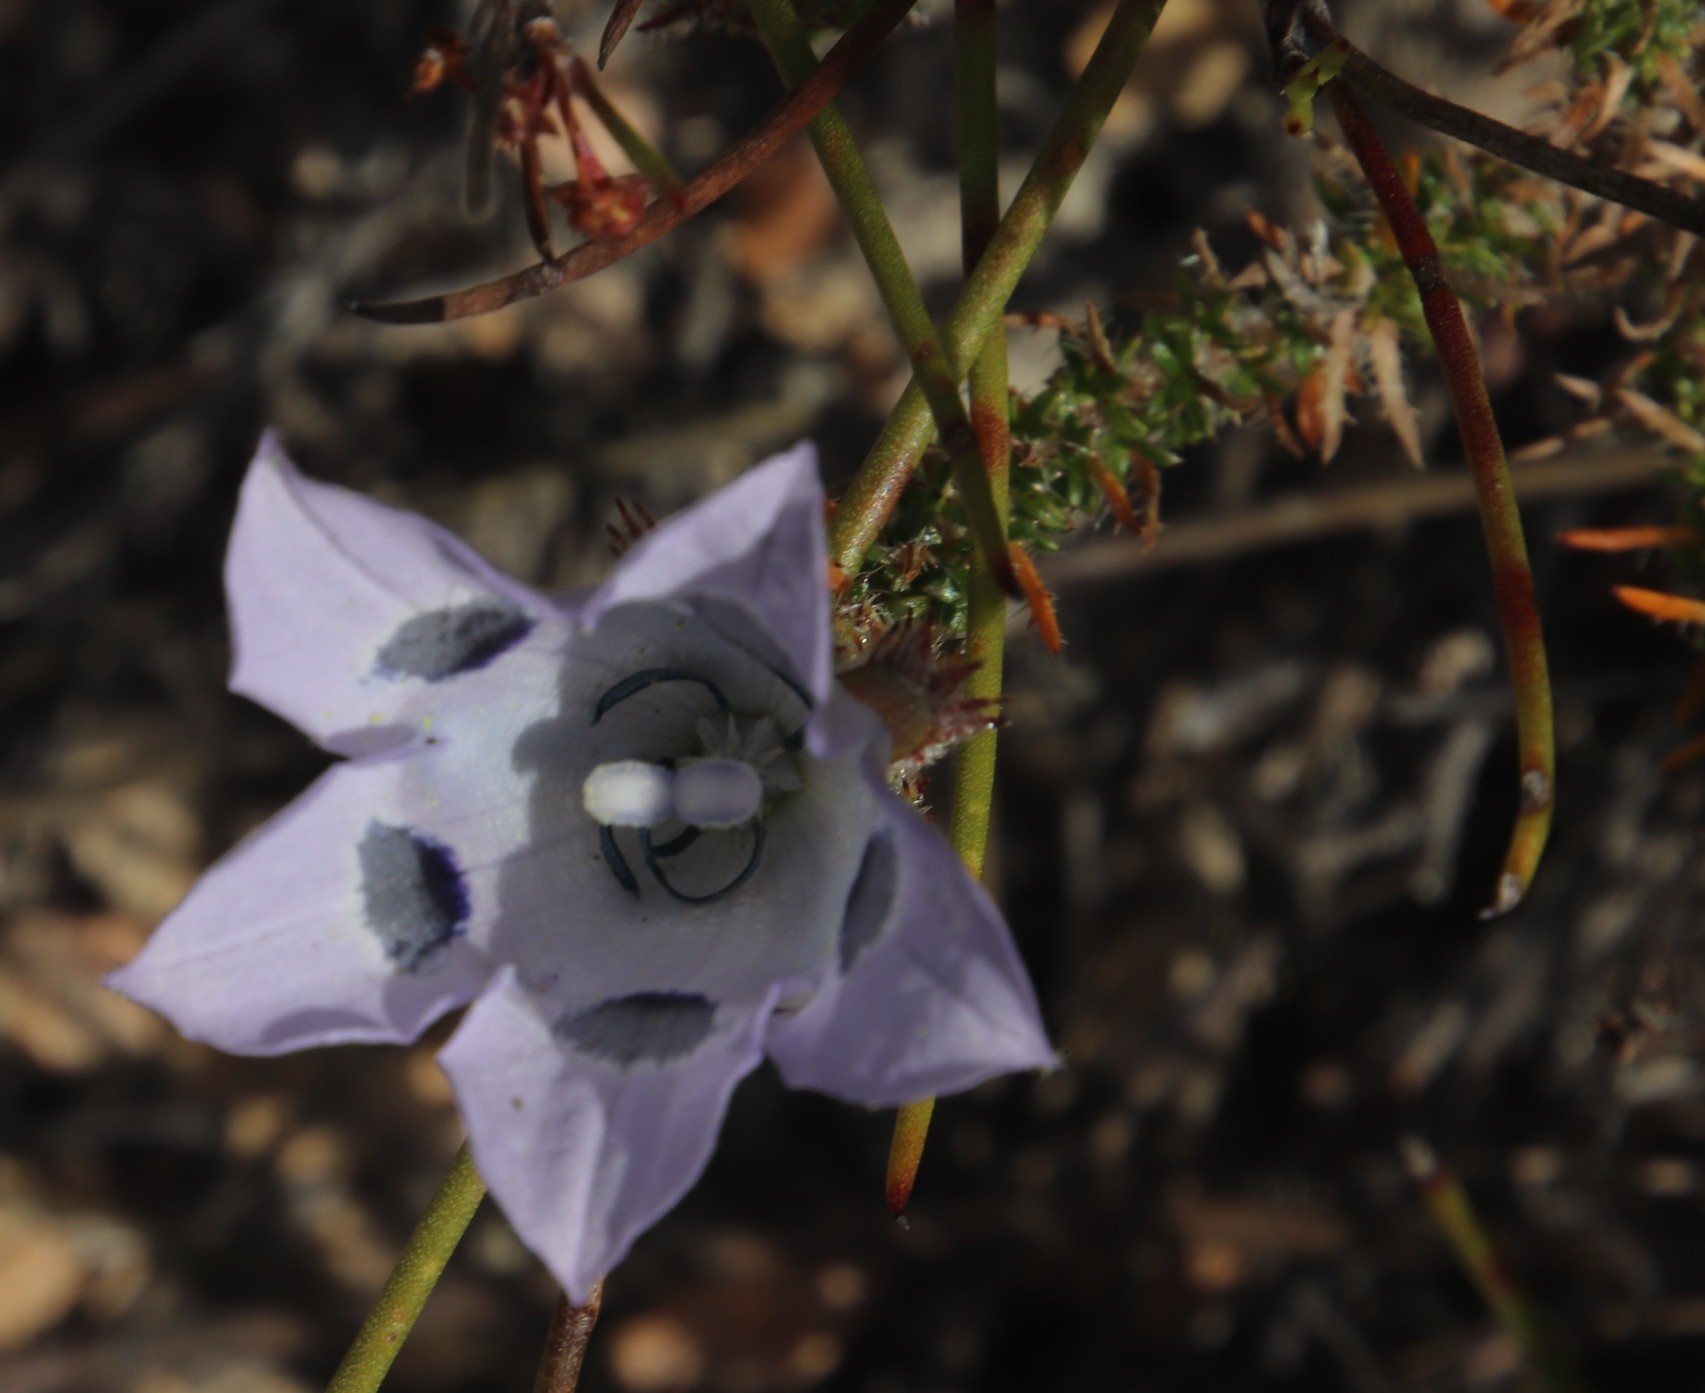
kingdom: Plantae
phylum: Tracheophyta
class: Magnoliopsida
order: Asterales
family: Campanulaceae
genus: Roella
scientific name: Roella incurva
